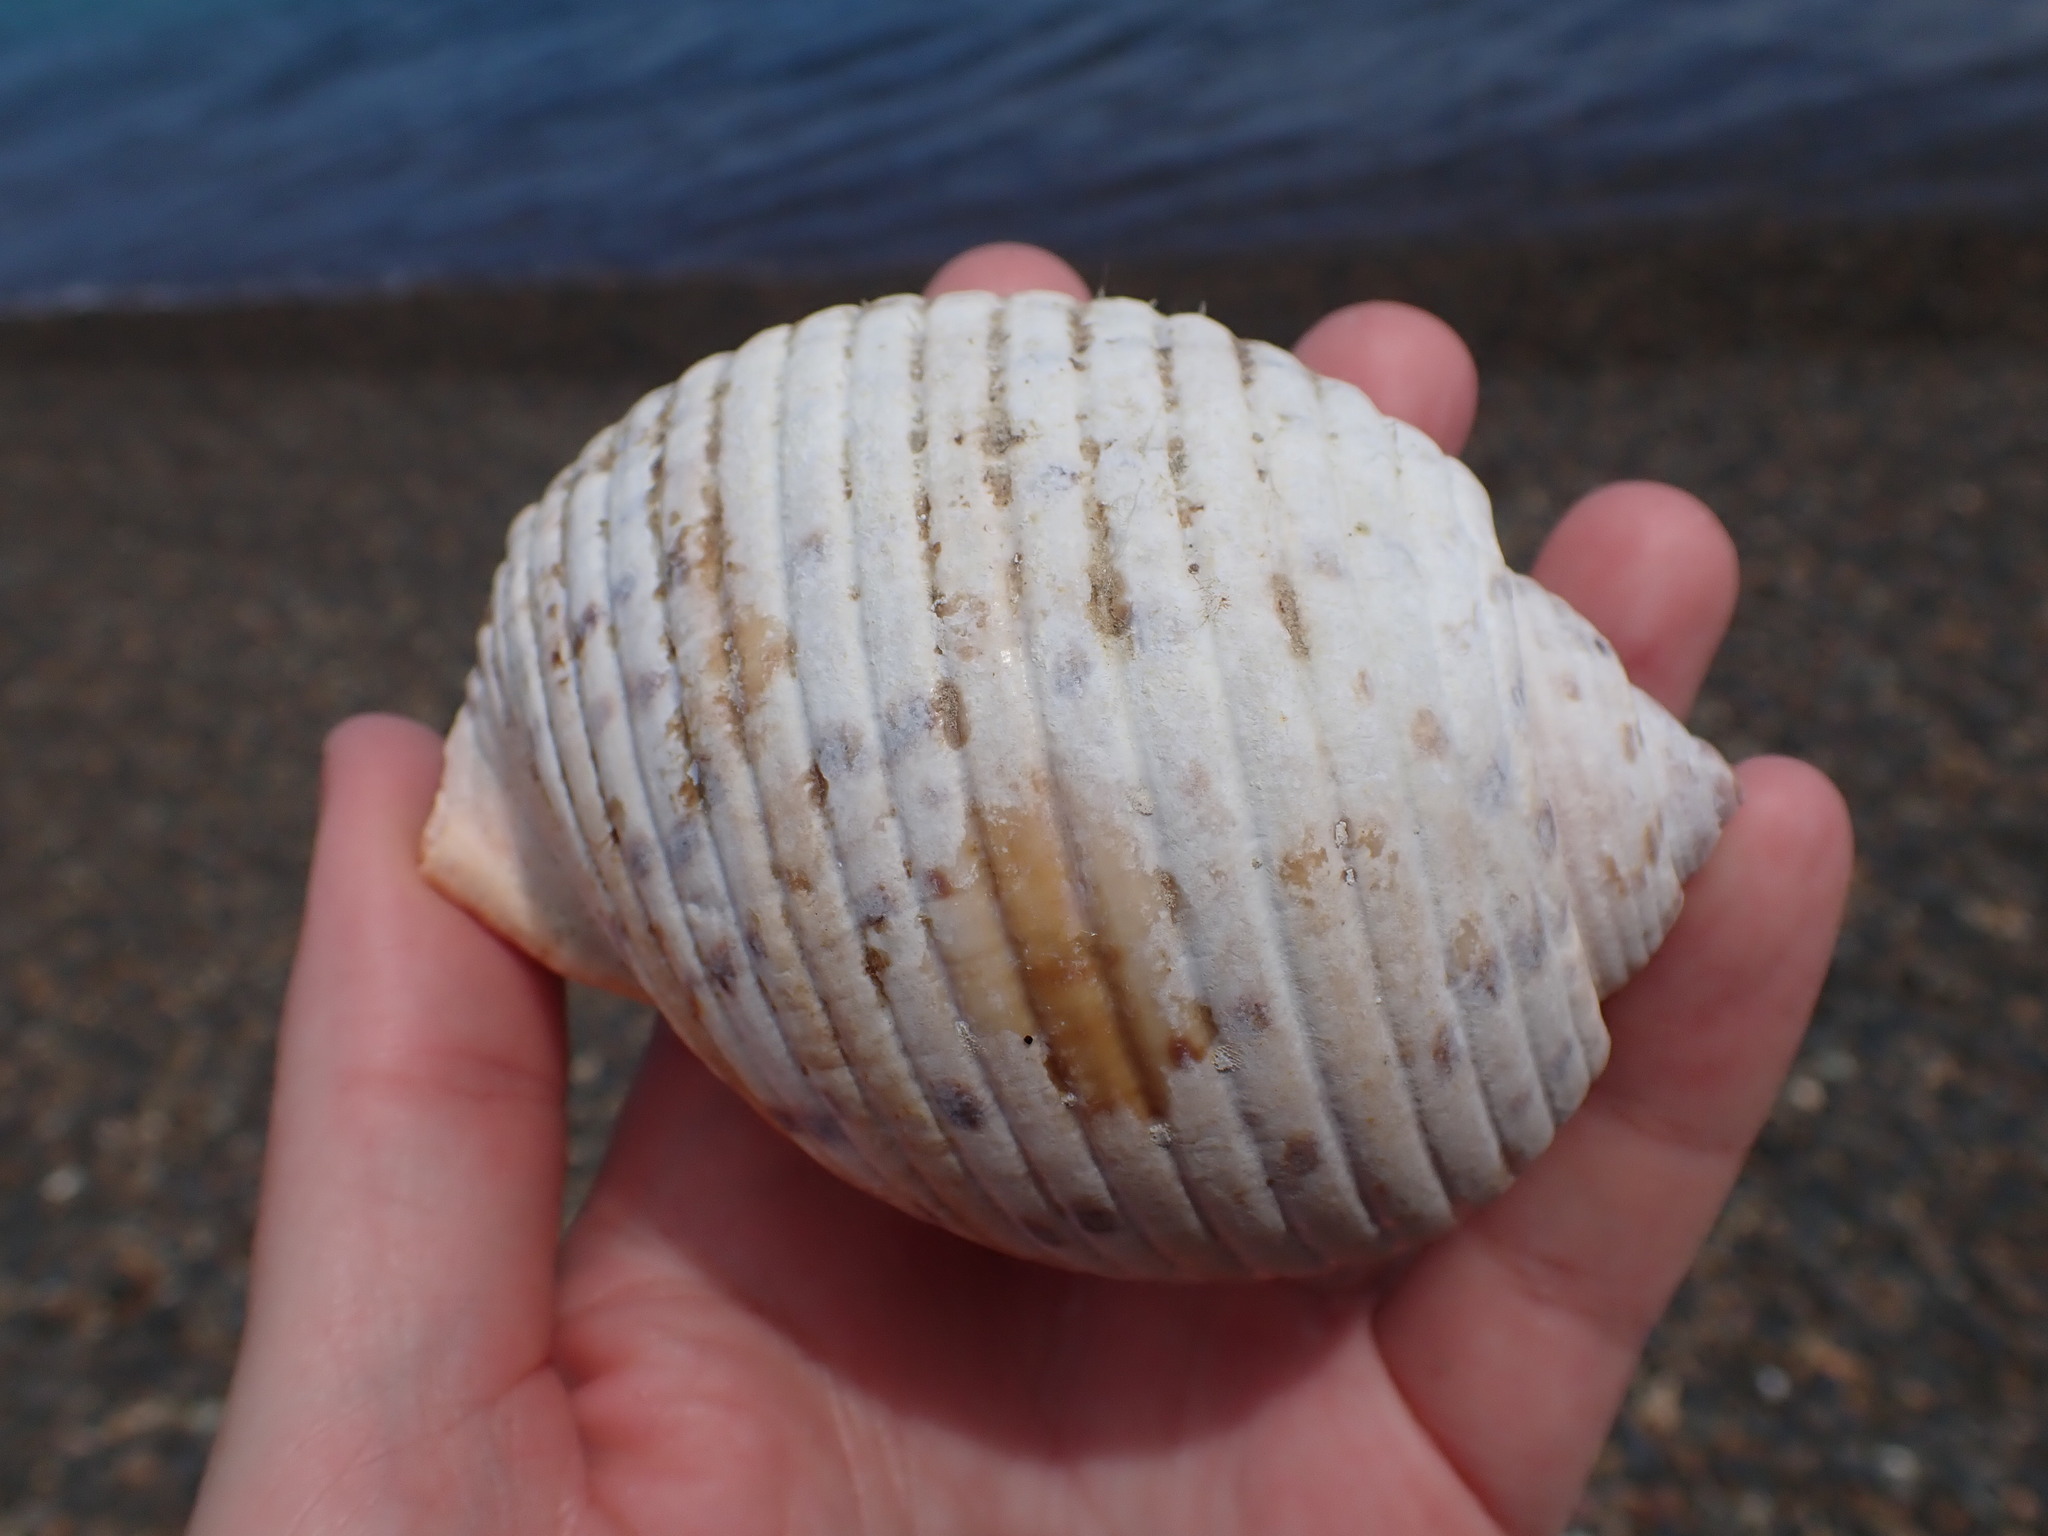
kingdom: Animalia
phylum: Mollusca
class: Gastropoda
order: Littorinimorpha
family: Tonnidae
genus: Tonna
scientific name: Tonna tankervillii
